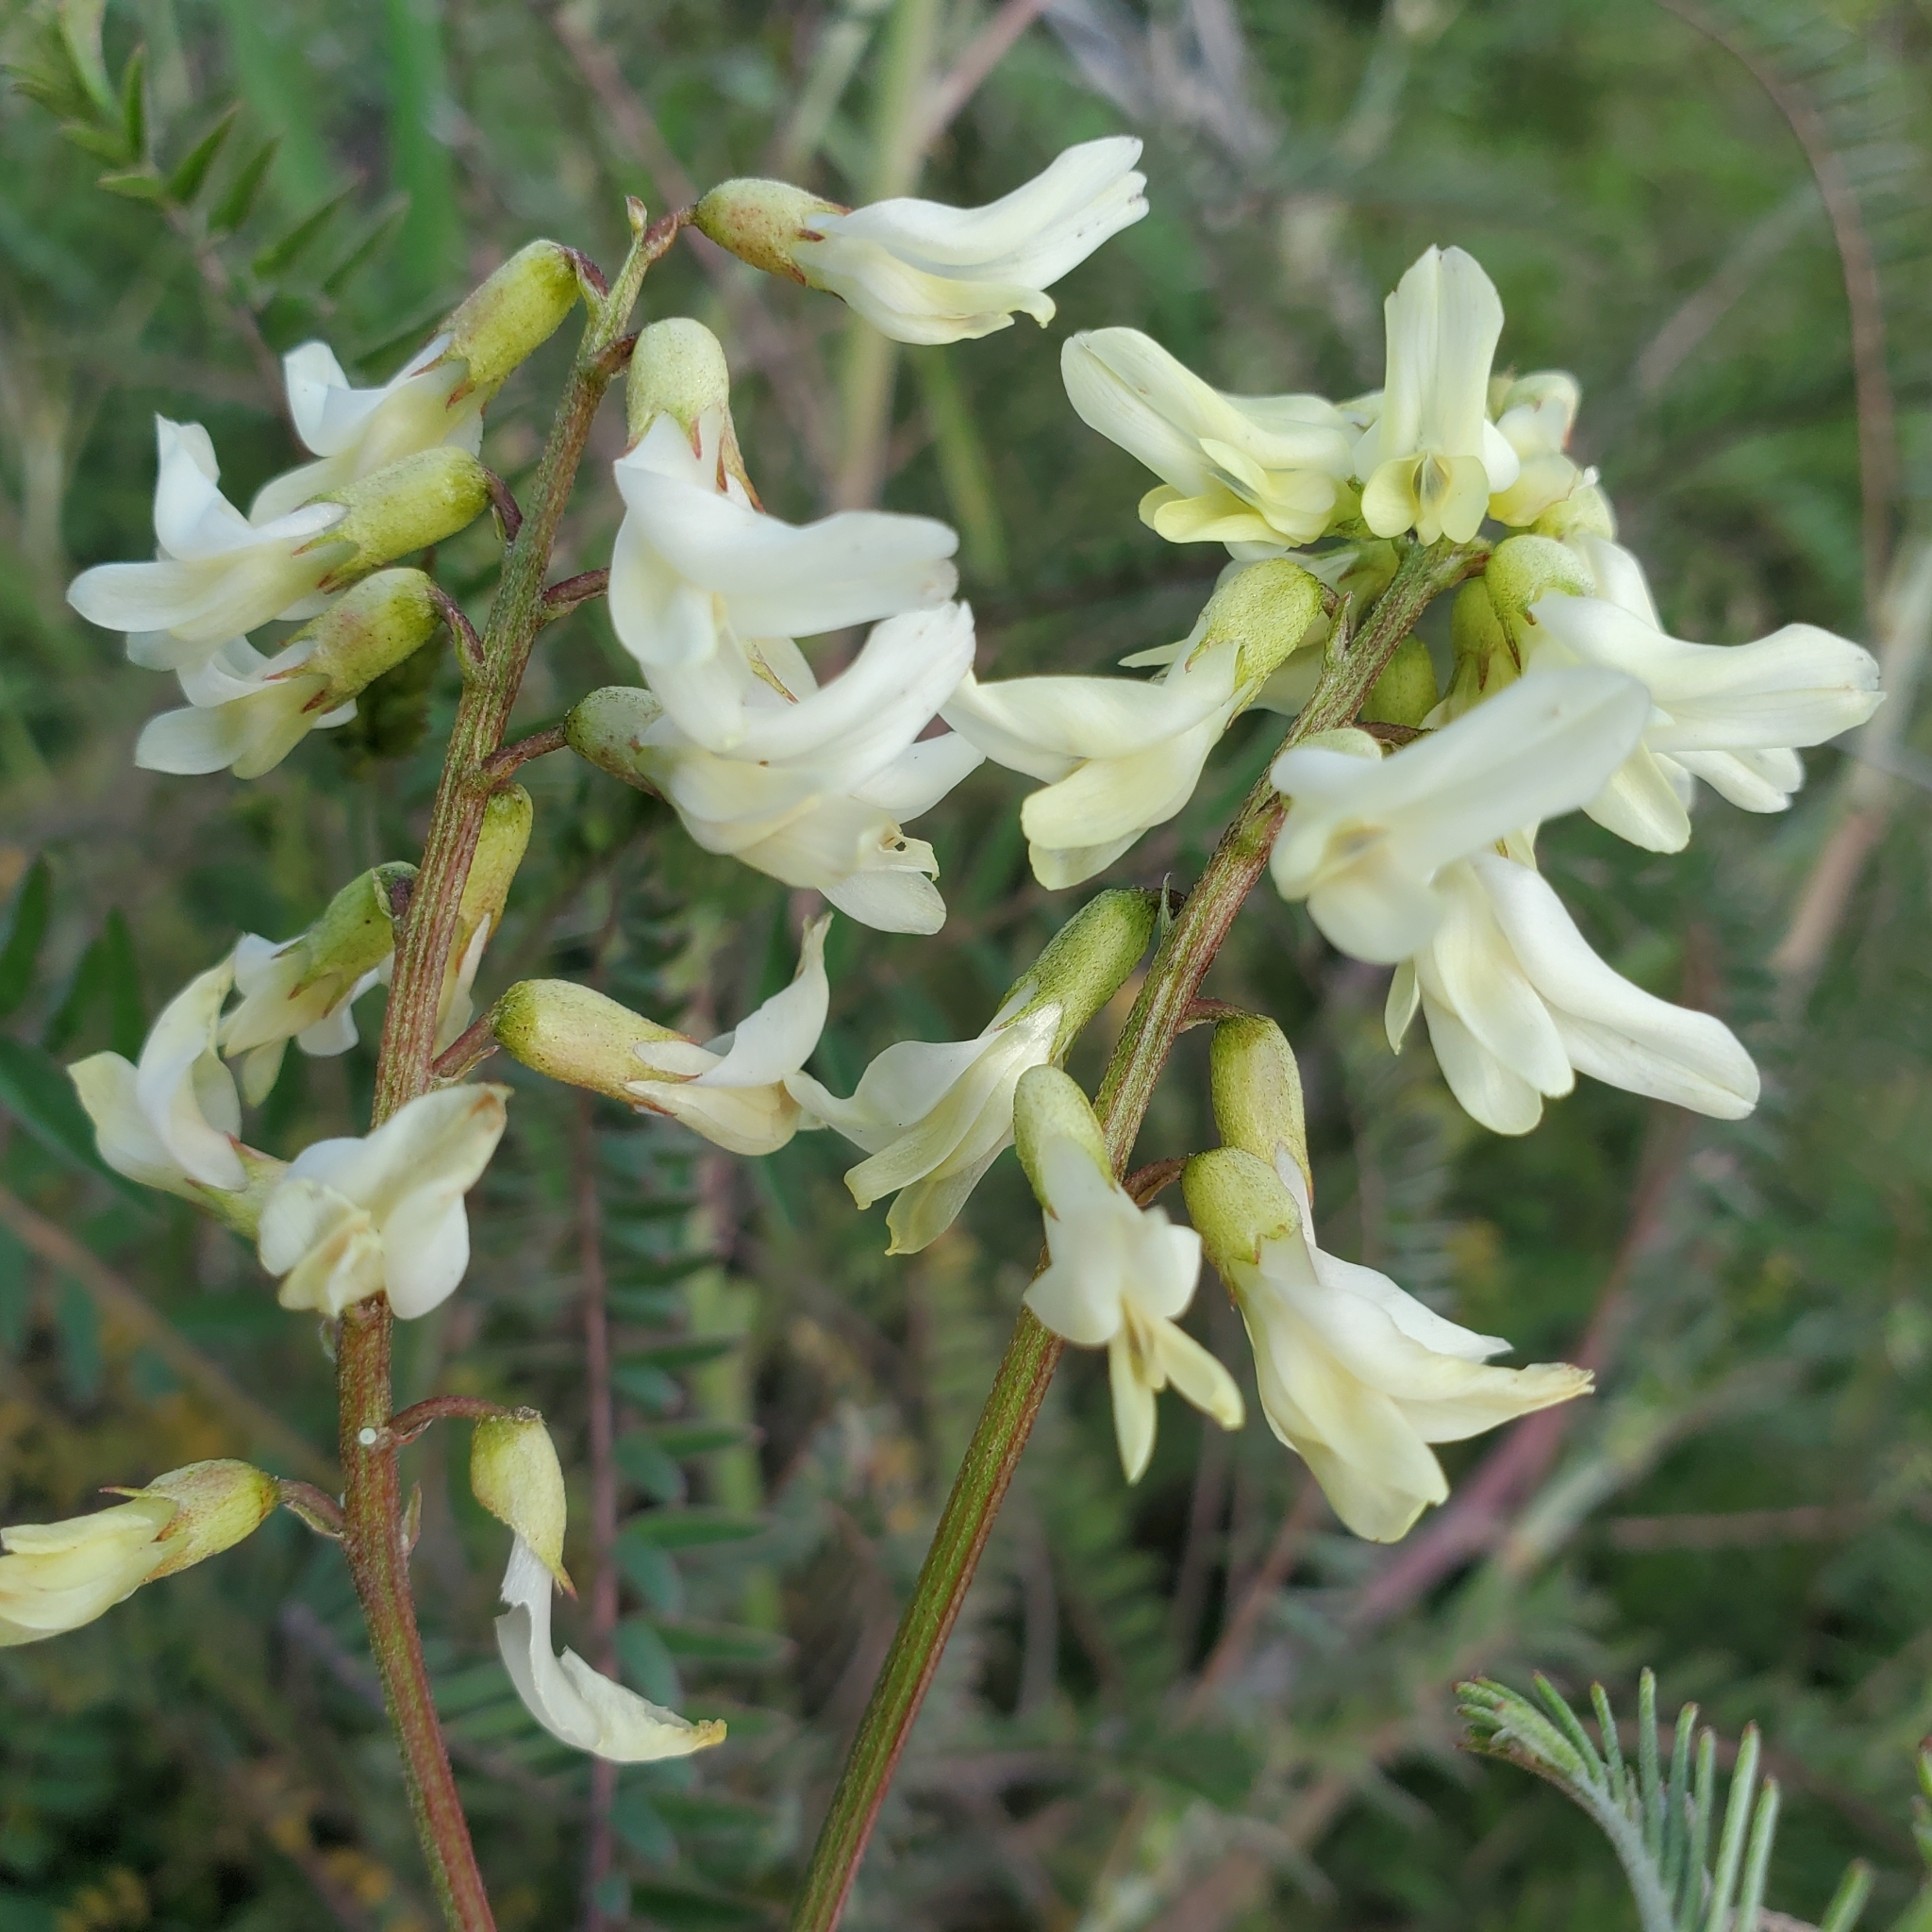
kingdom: Plantae
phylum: Tracheophyta
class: Magnoliopsida
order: Fabales
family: Fabaceae
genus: Astragalus
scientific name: Astragalus trichopodus
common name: Santa barbara milk-vetch
